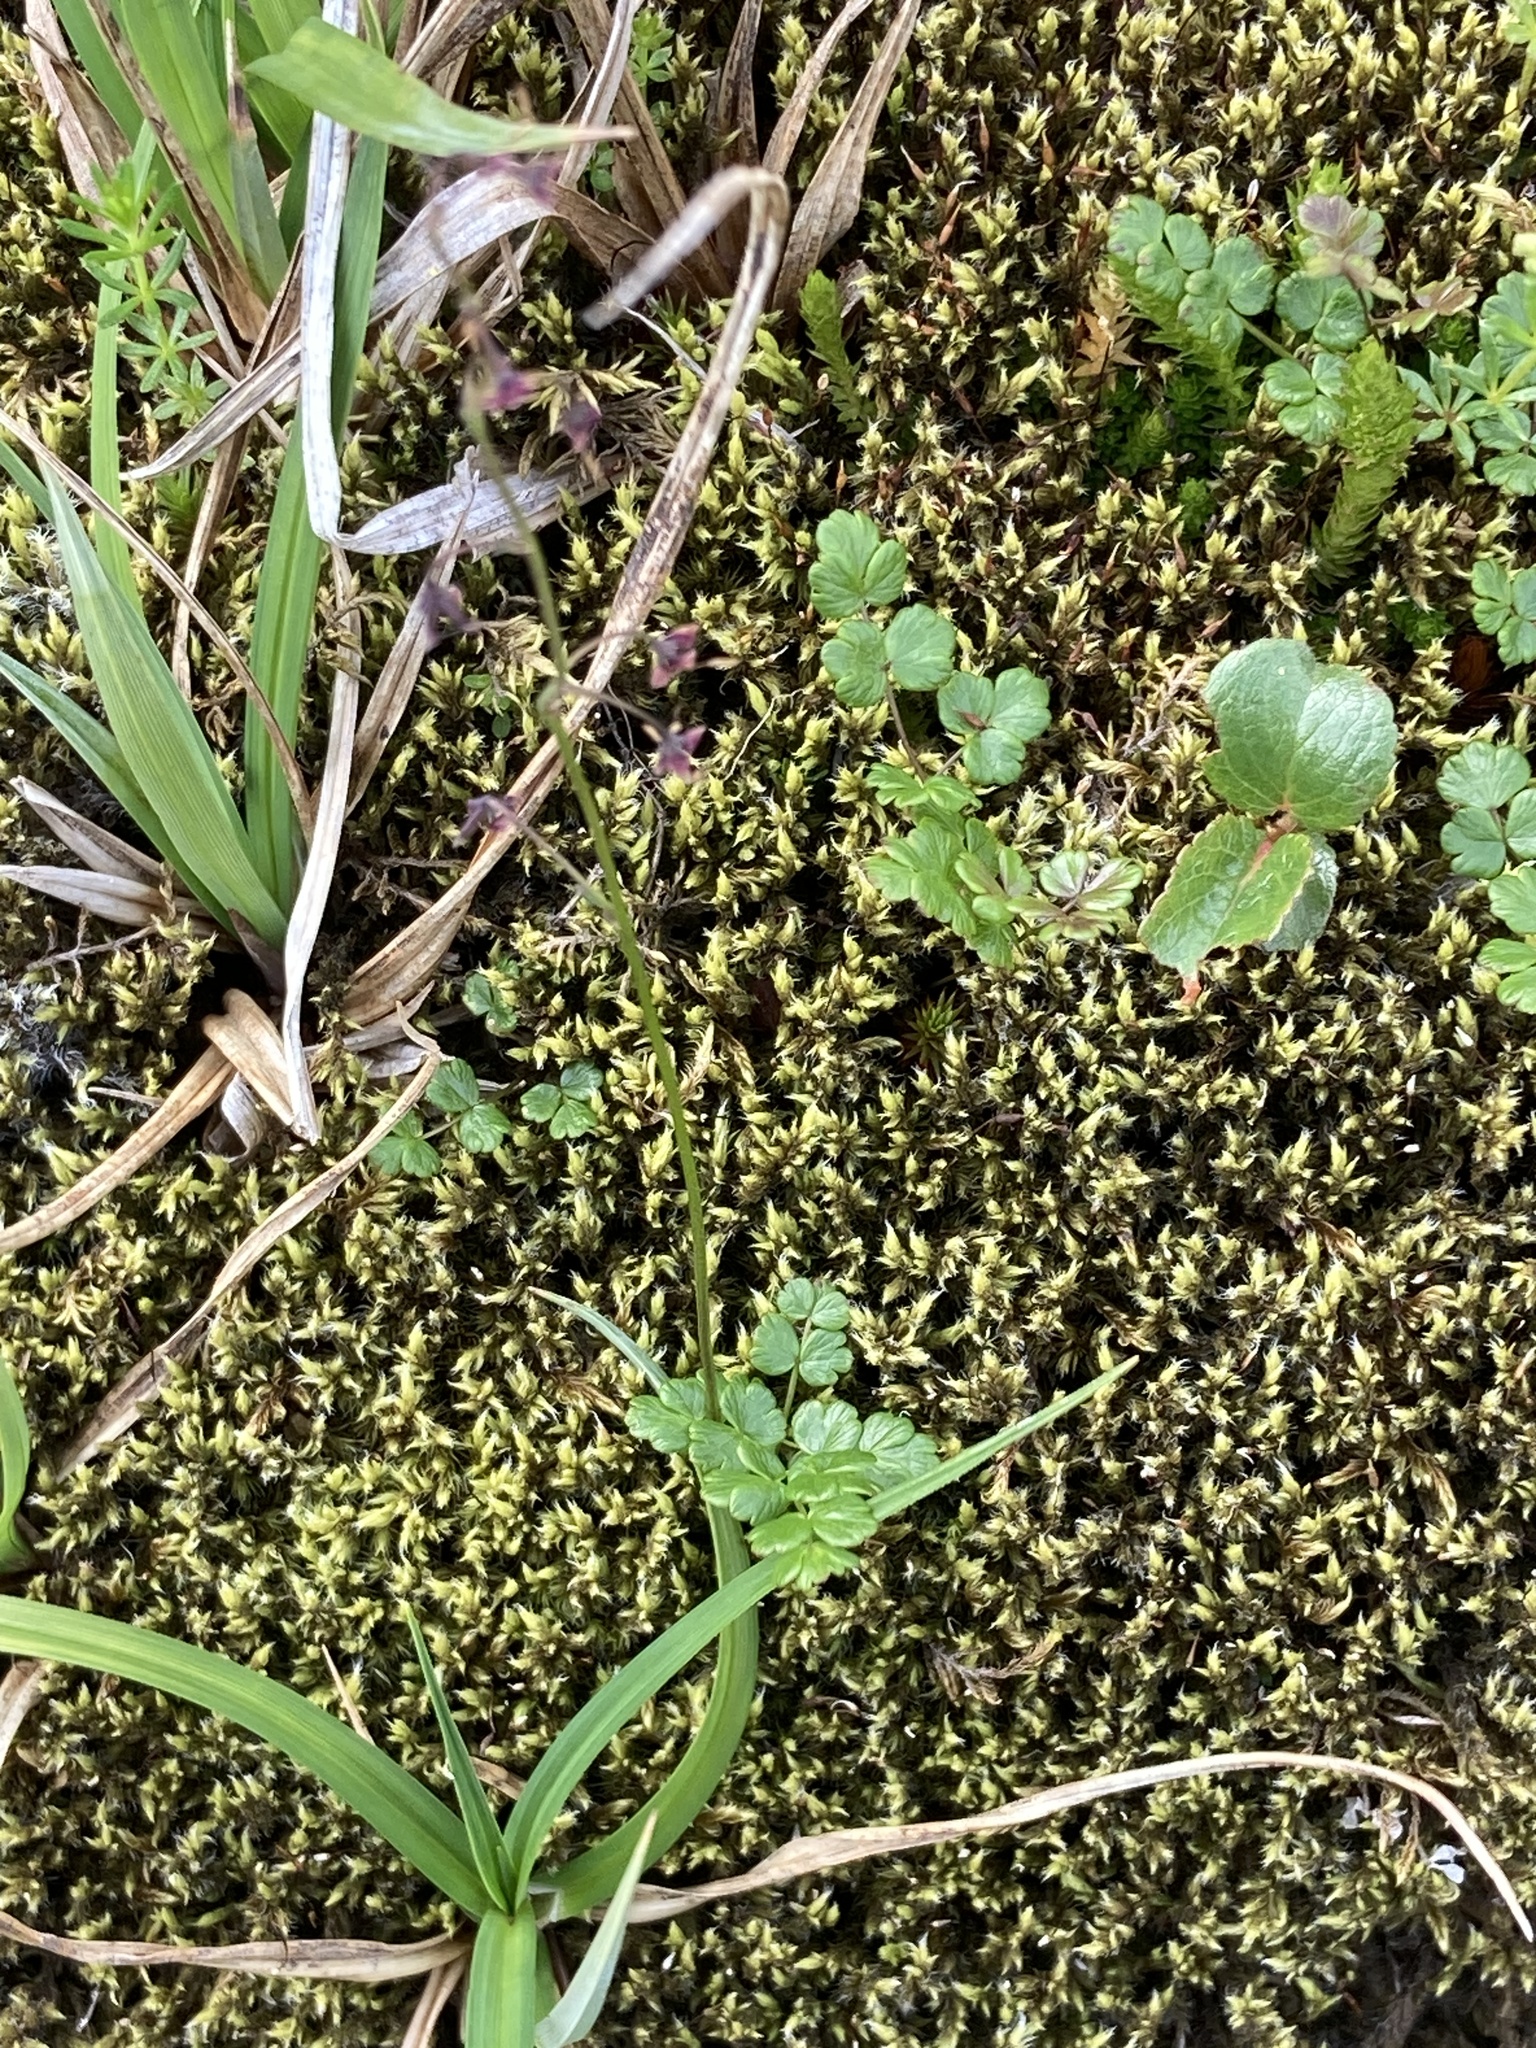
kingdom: Fungi
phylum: Basidiomycota
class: Pucciniomycetes
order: Pucciniales
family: Pucciniaceae
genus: Puccinia
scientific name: Puccinia septentrionalis
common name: Alpine rust
